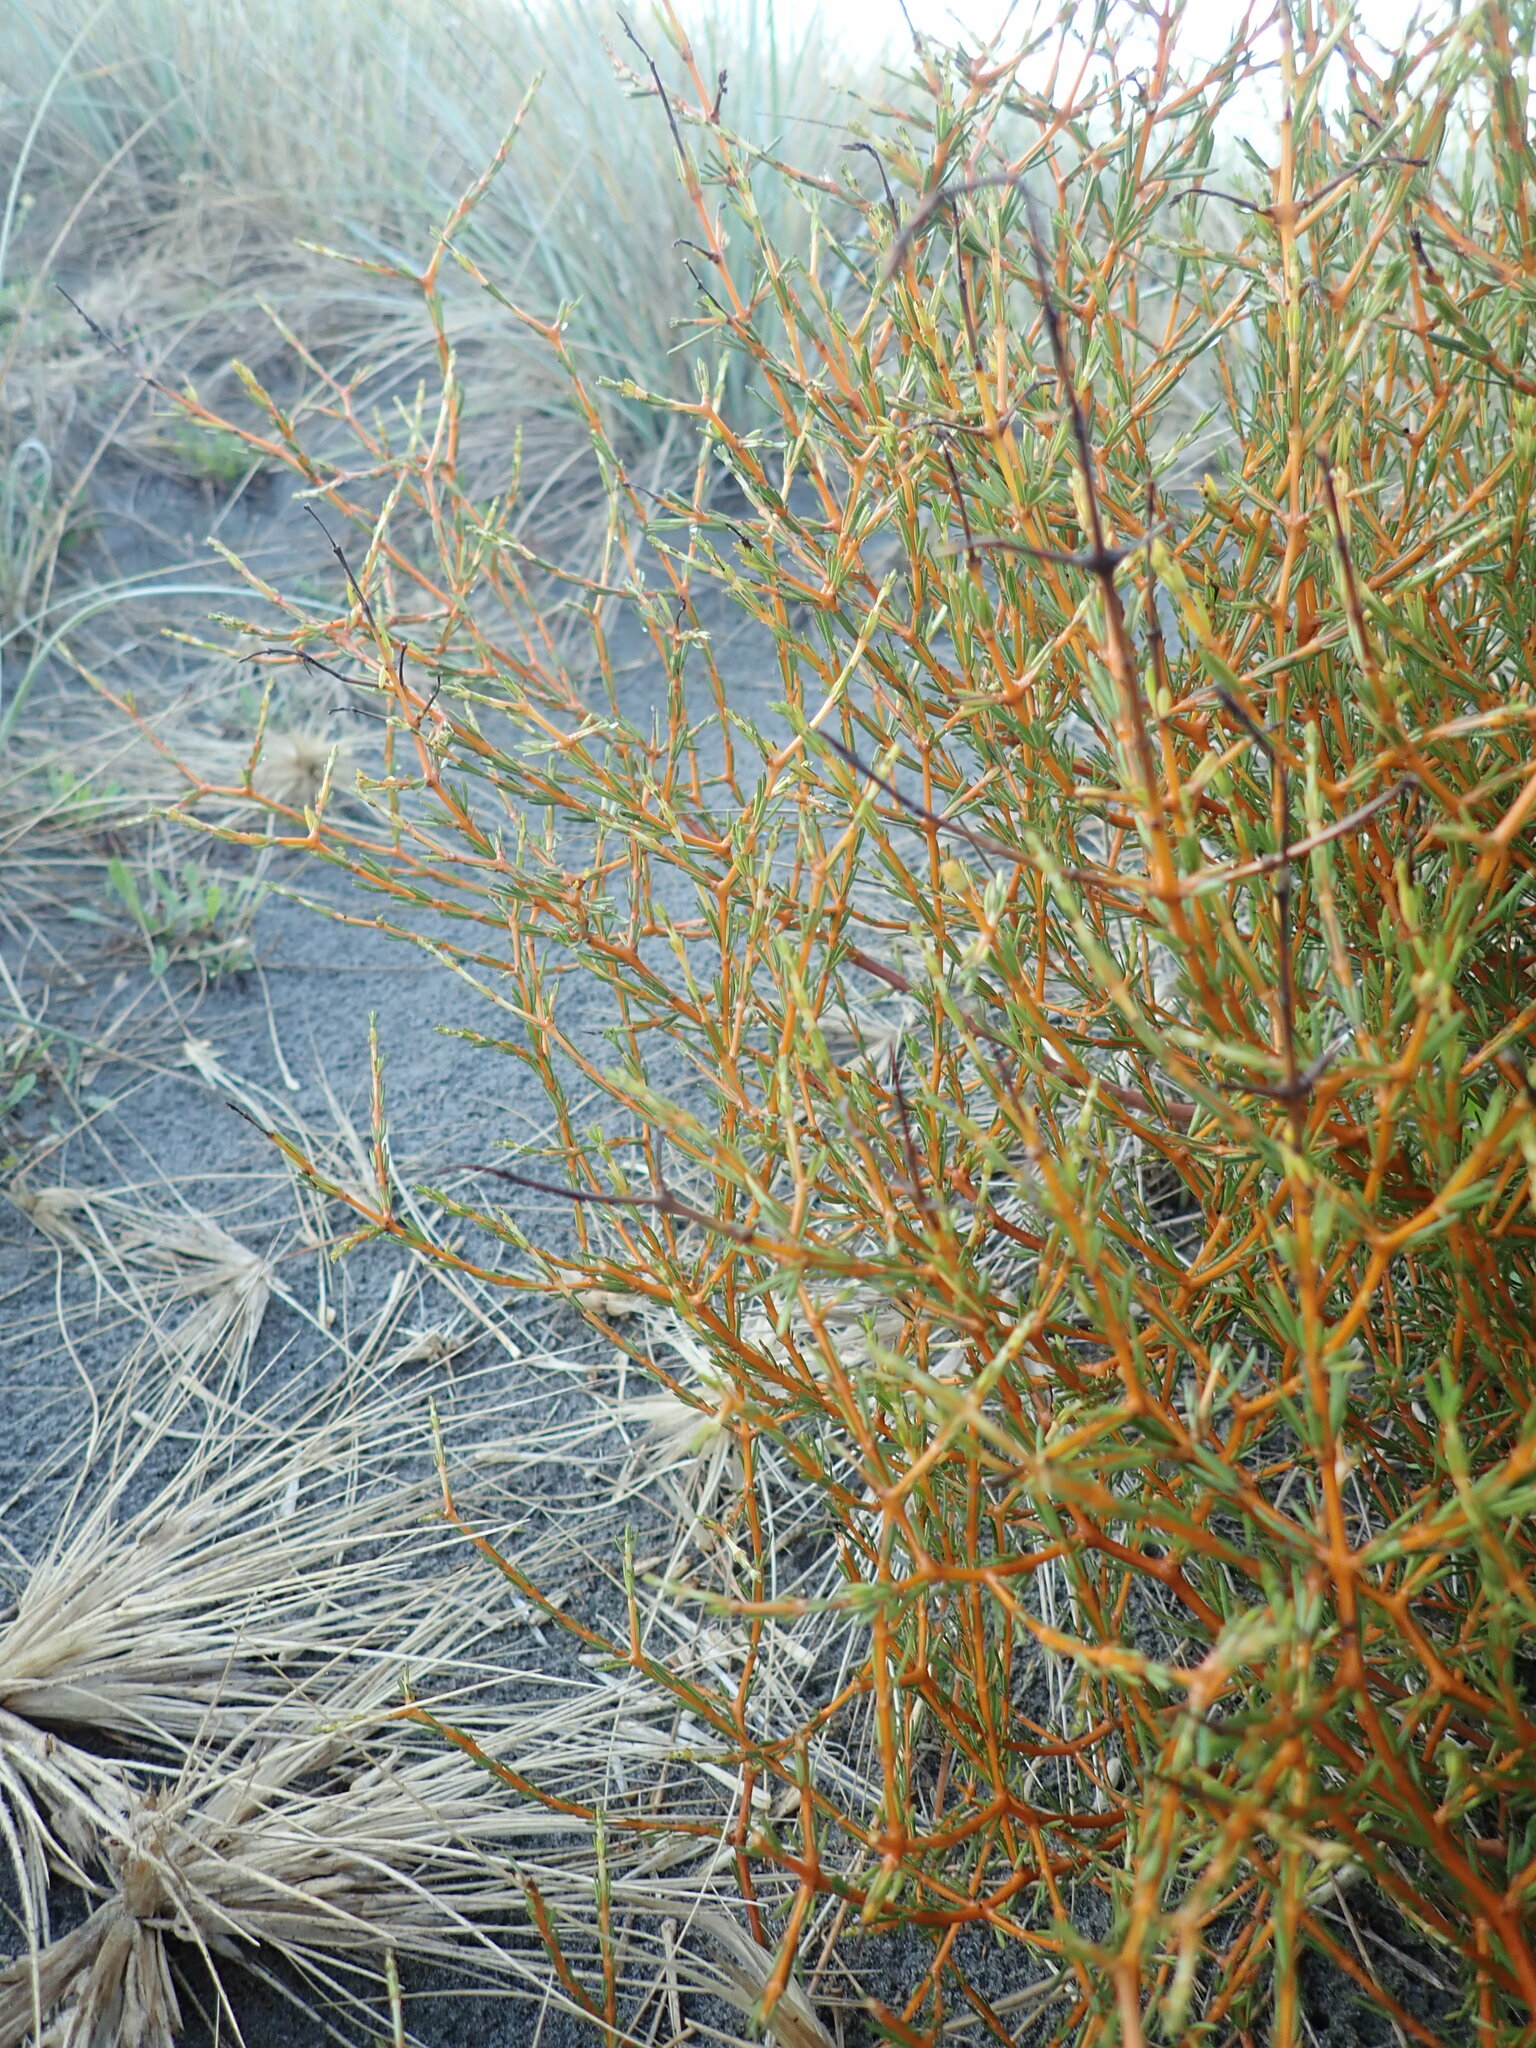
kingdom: Plantae
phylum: Tracheophyta
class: Magnoliopsida
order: Gentianales
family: Rubiaceae
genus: Coprosma
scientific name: Coprosma acerosa
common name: Sand coprosma
